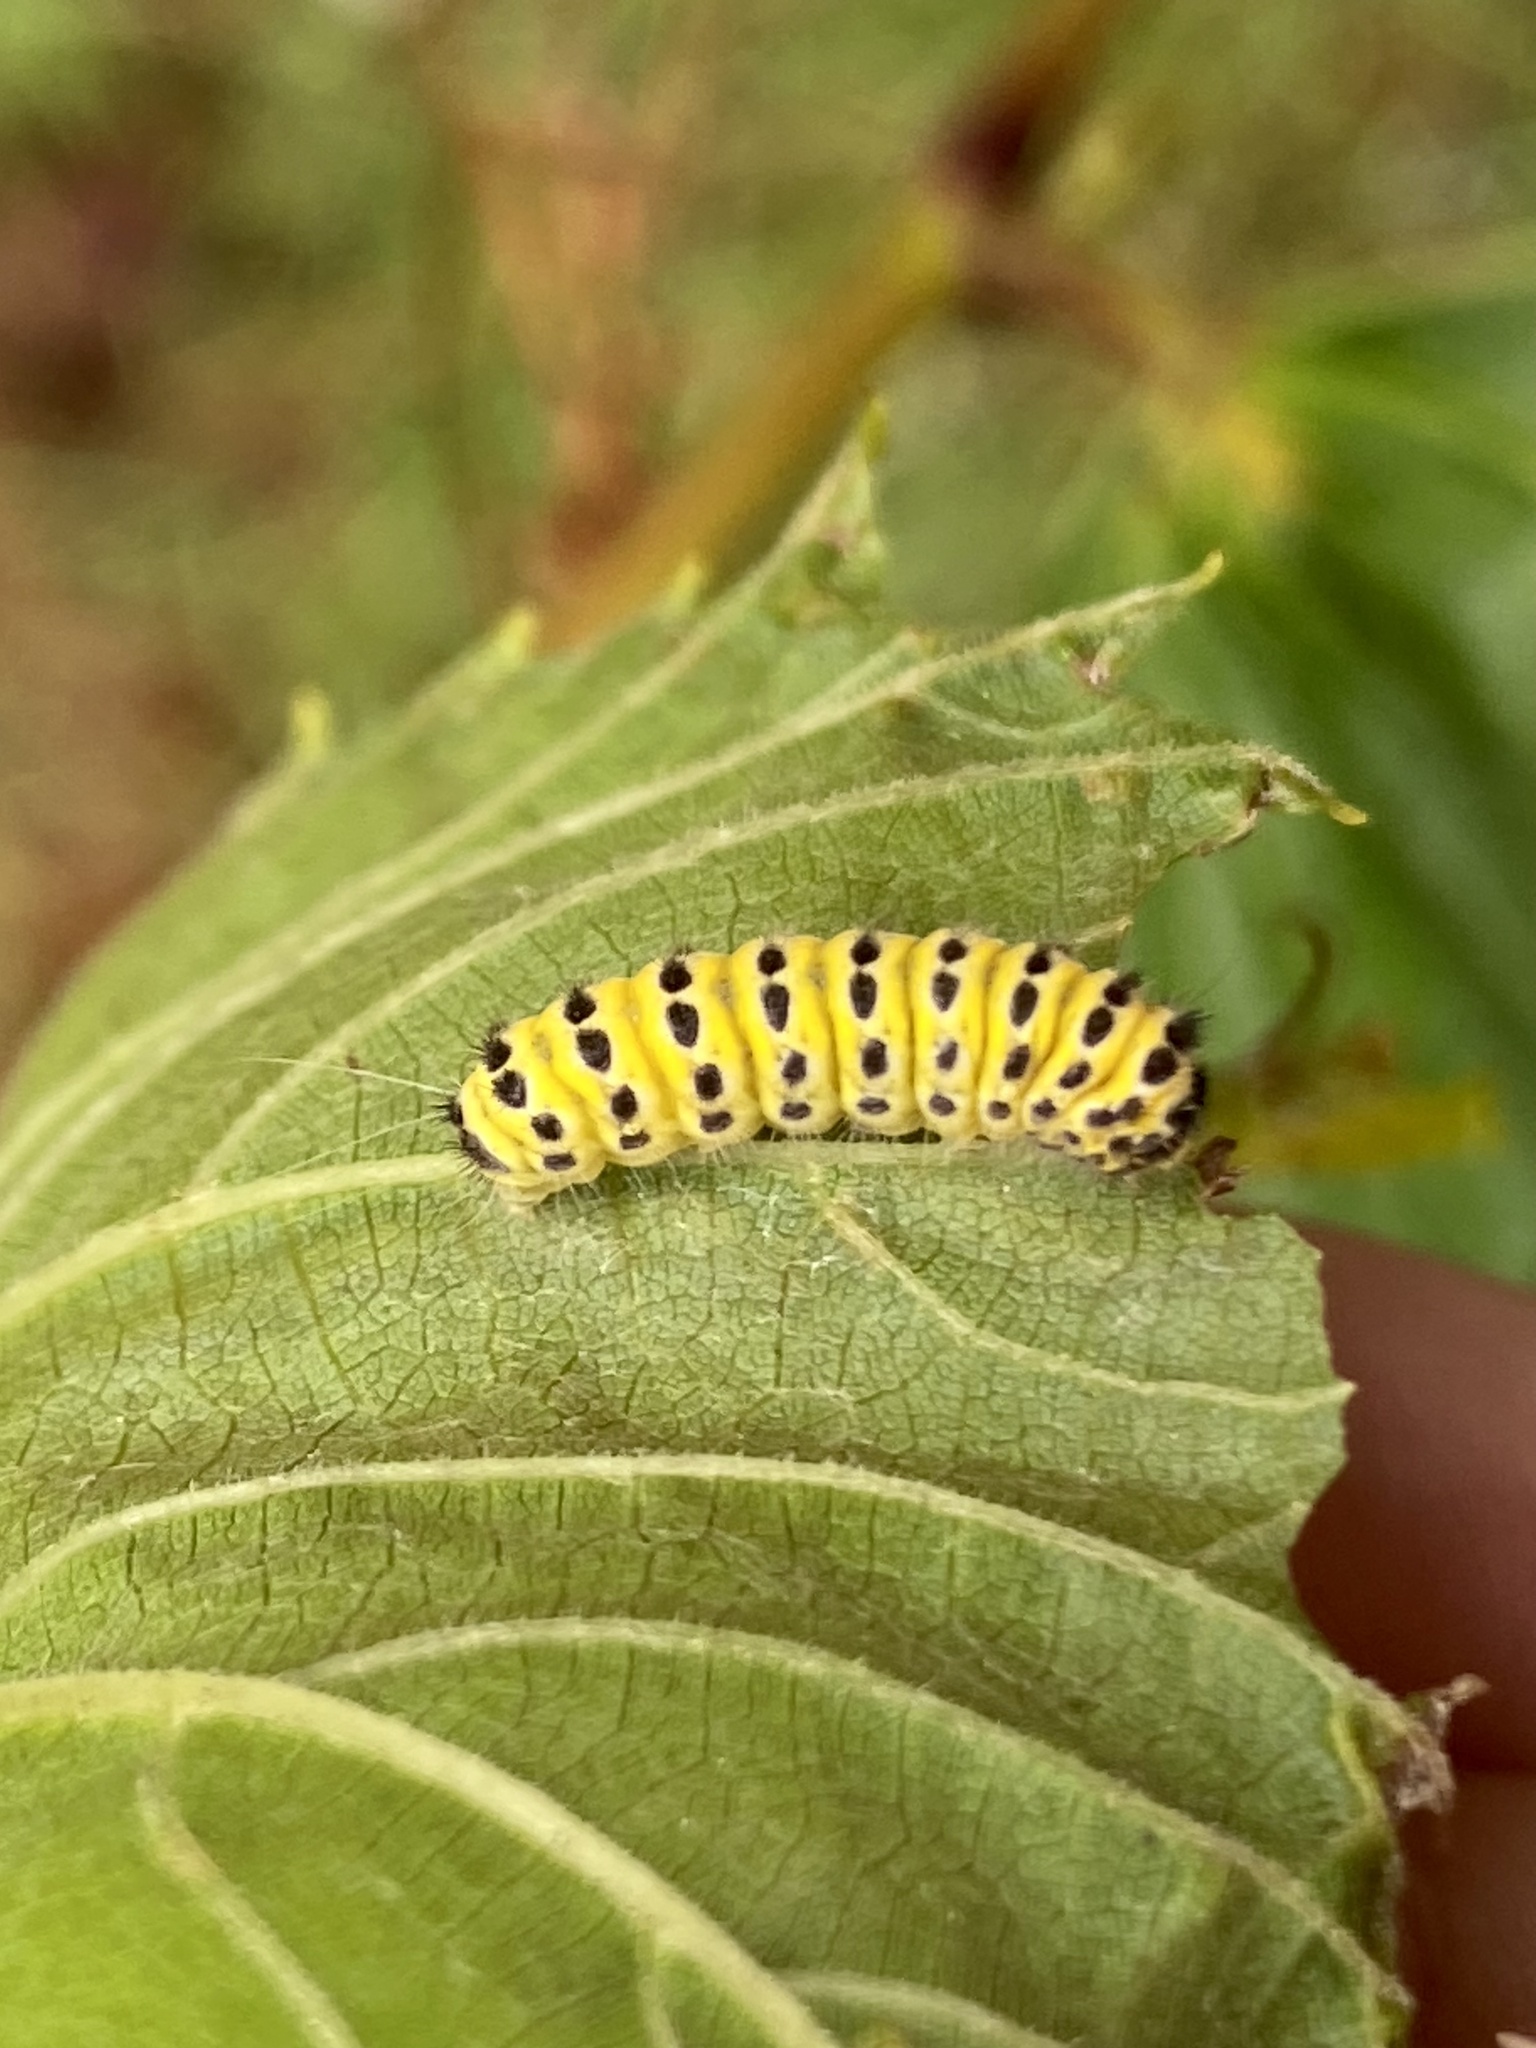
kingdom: Animalia
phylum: Arthropoda
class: Insecta
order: Lepidoptera
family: Zygaenidae
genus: Harrisina
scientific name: Harrisina americana
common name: Grapeleaf skeletonizer moth
